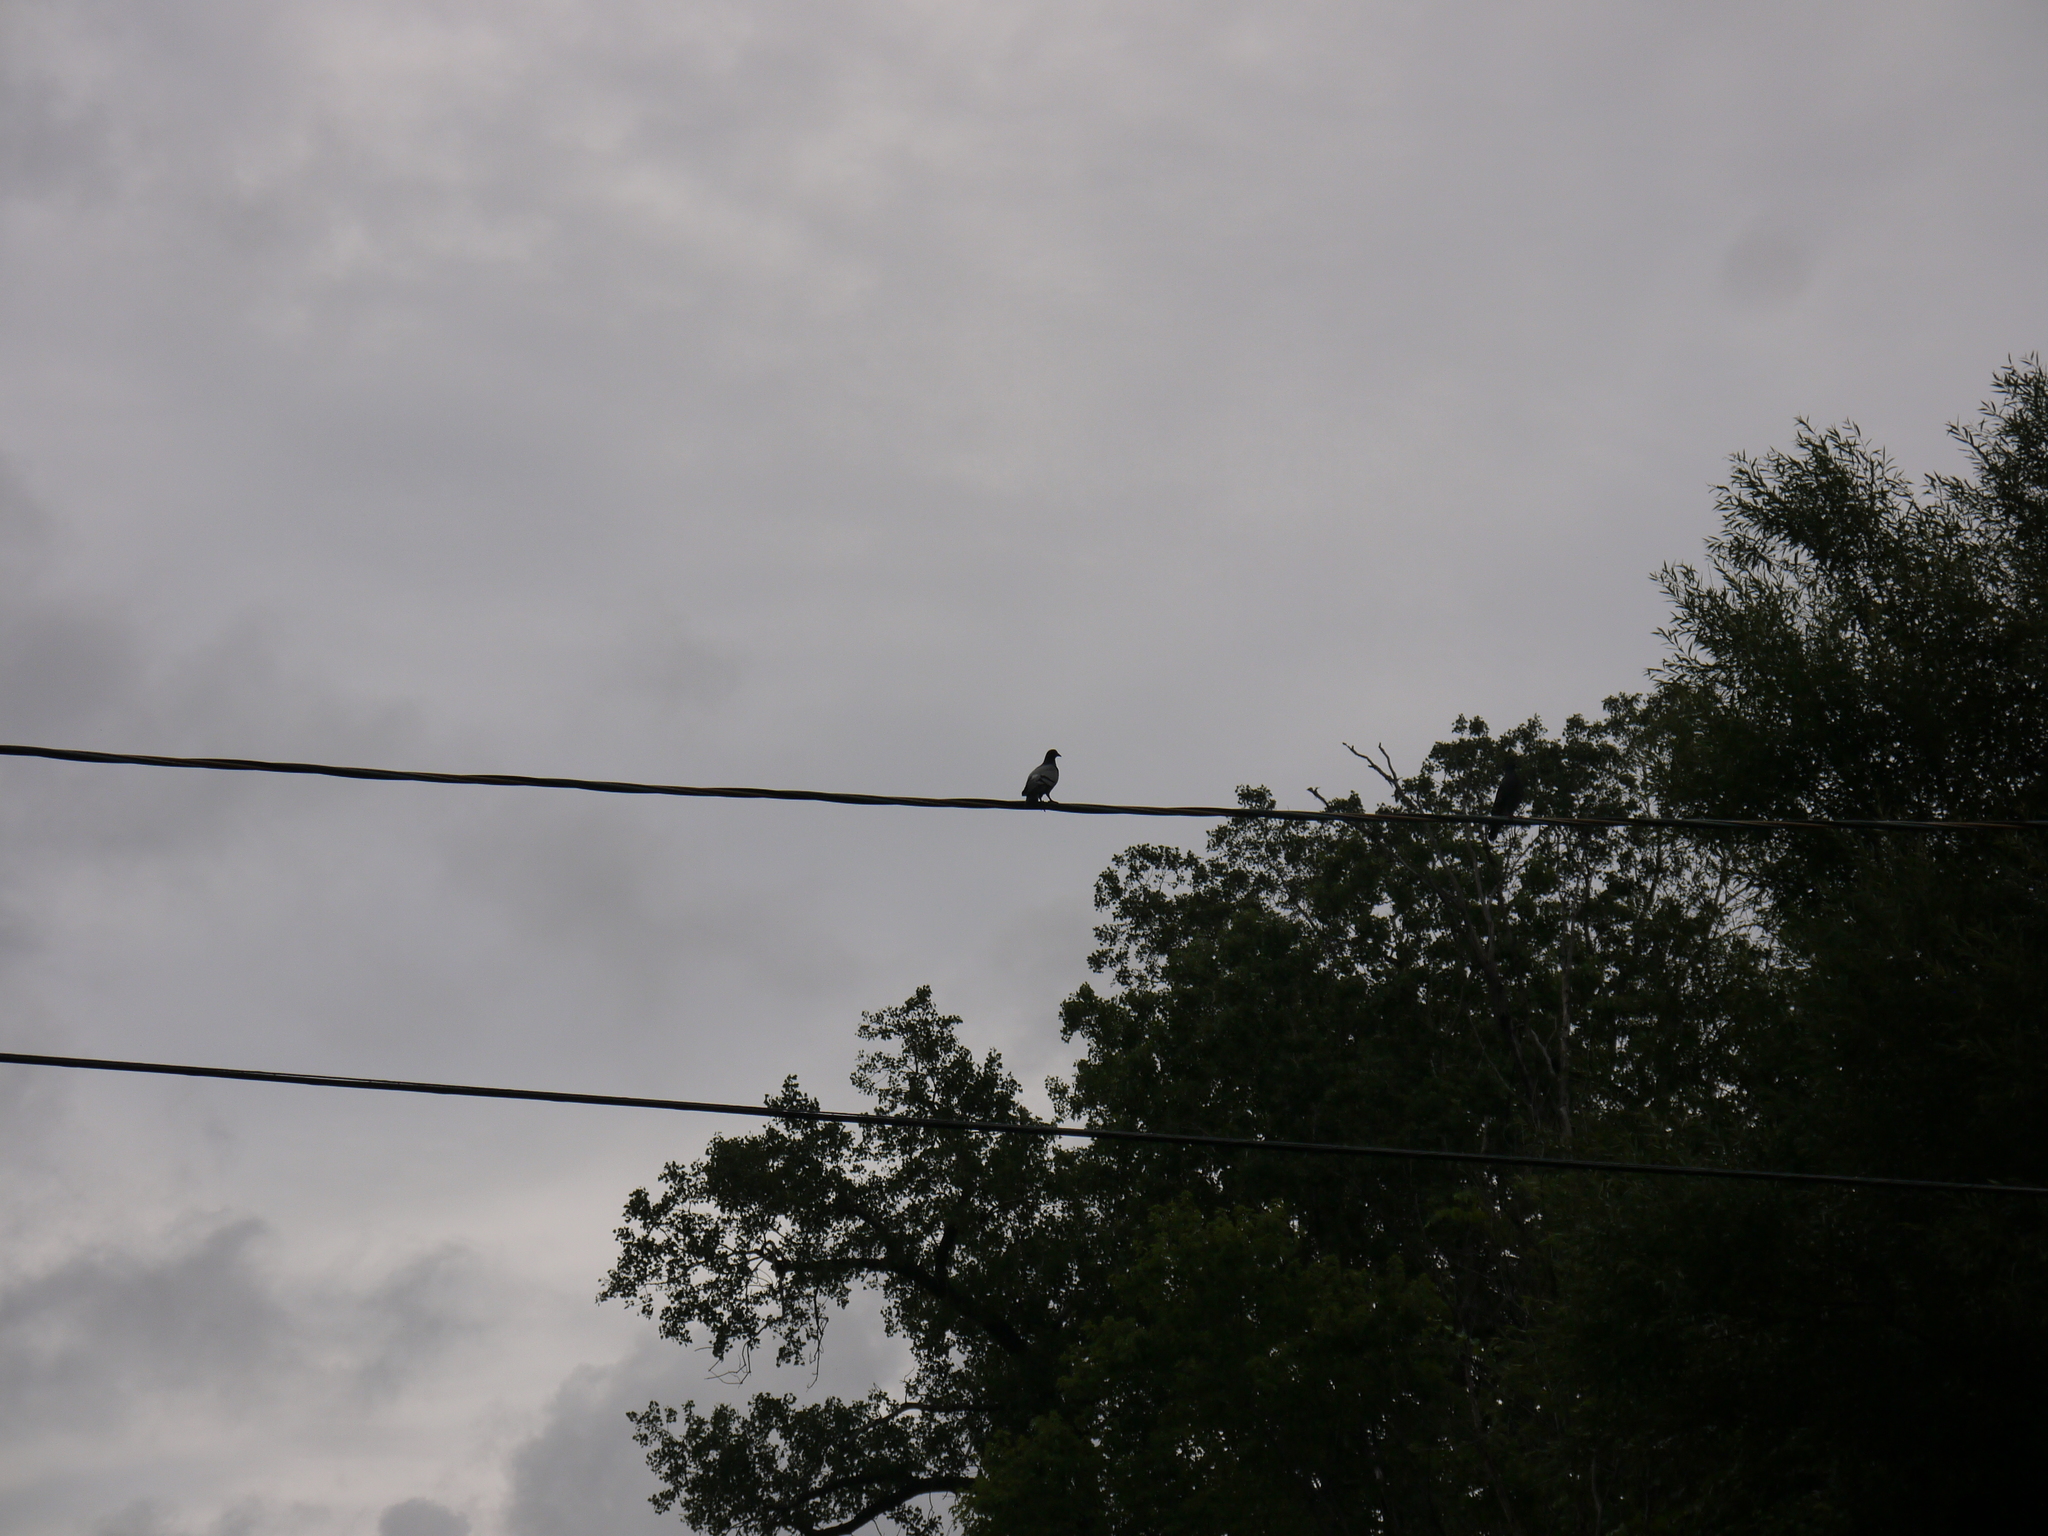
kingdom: Animalia
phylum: Chordata
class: Aves
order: Columbiformes
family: Columbidae
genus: Columba
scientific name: Columba livia
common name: Rock pigeon
